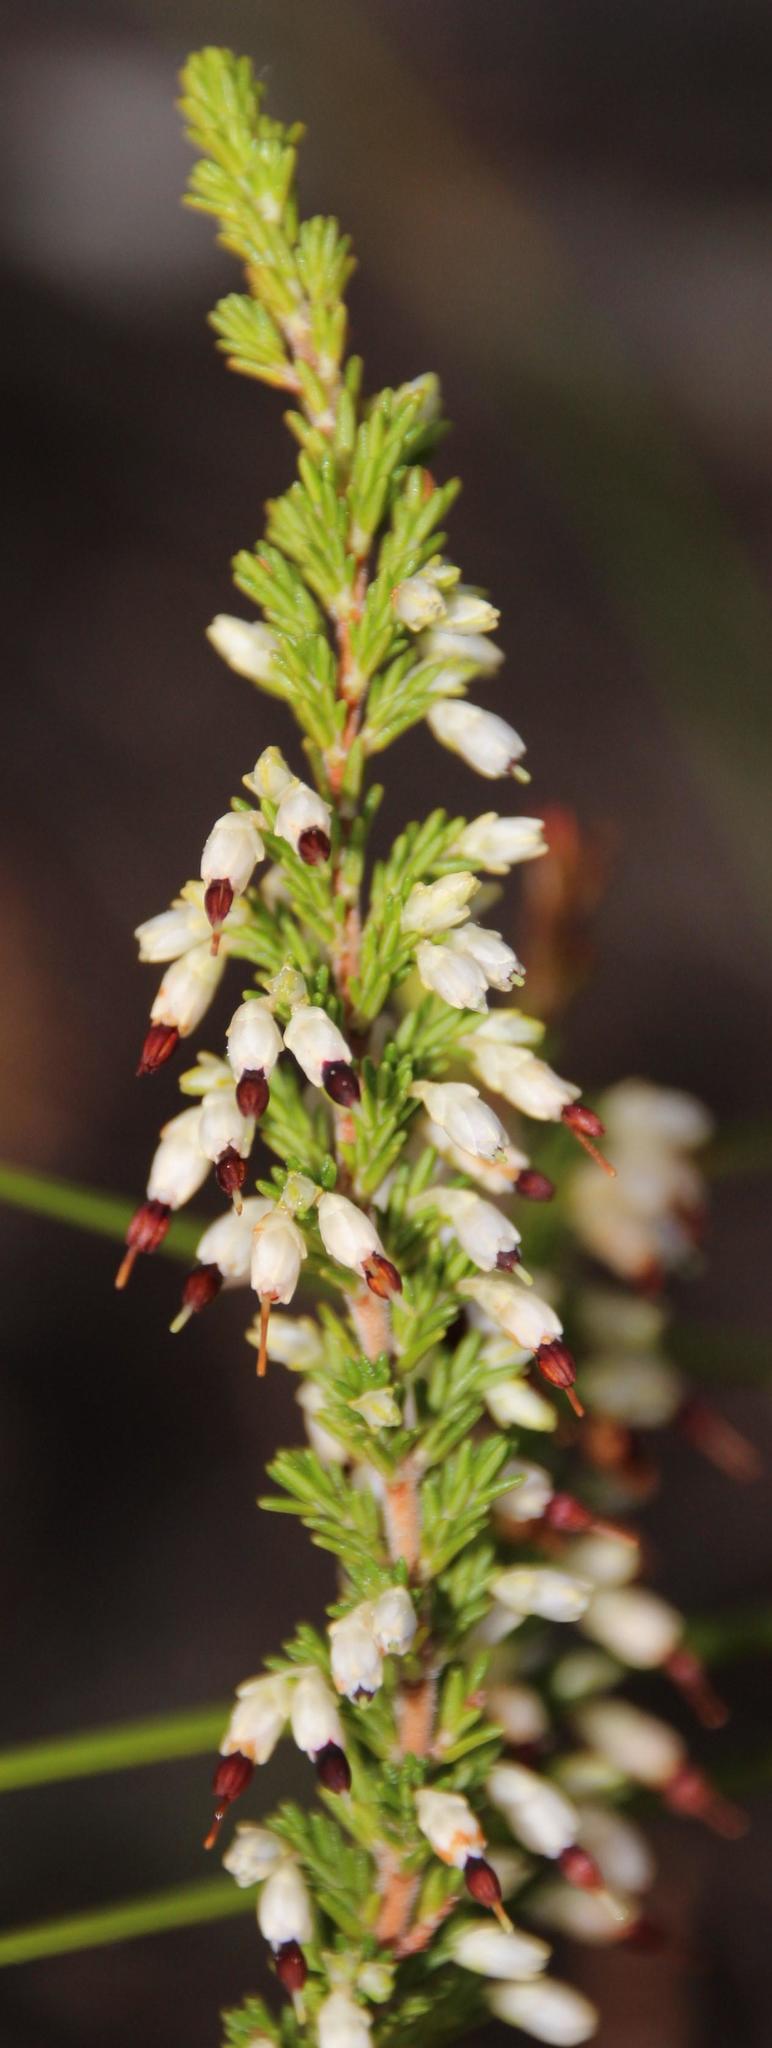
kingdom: Plantae
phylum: Tracheophyta
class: Magnoliopsida
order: Ericales
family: Ericaceae
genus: Erica
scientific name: Erica imbricata
